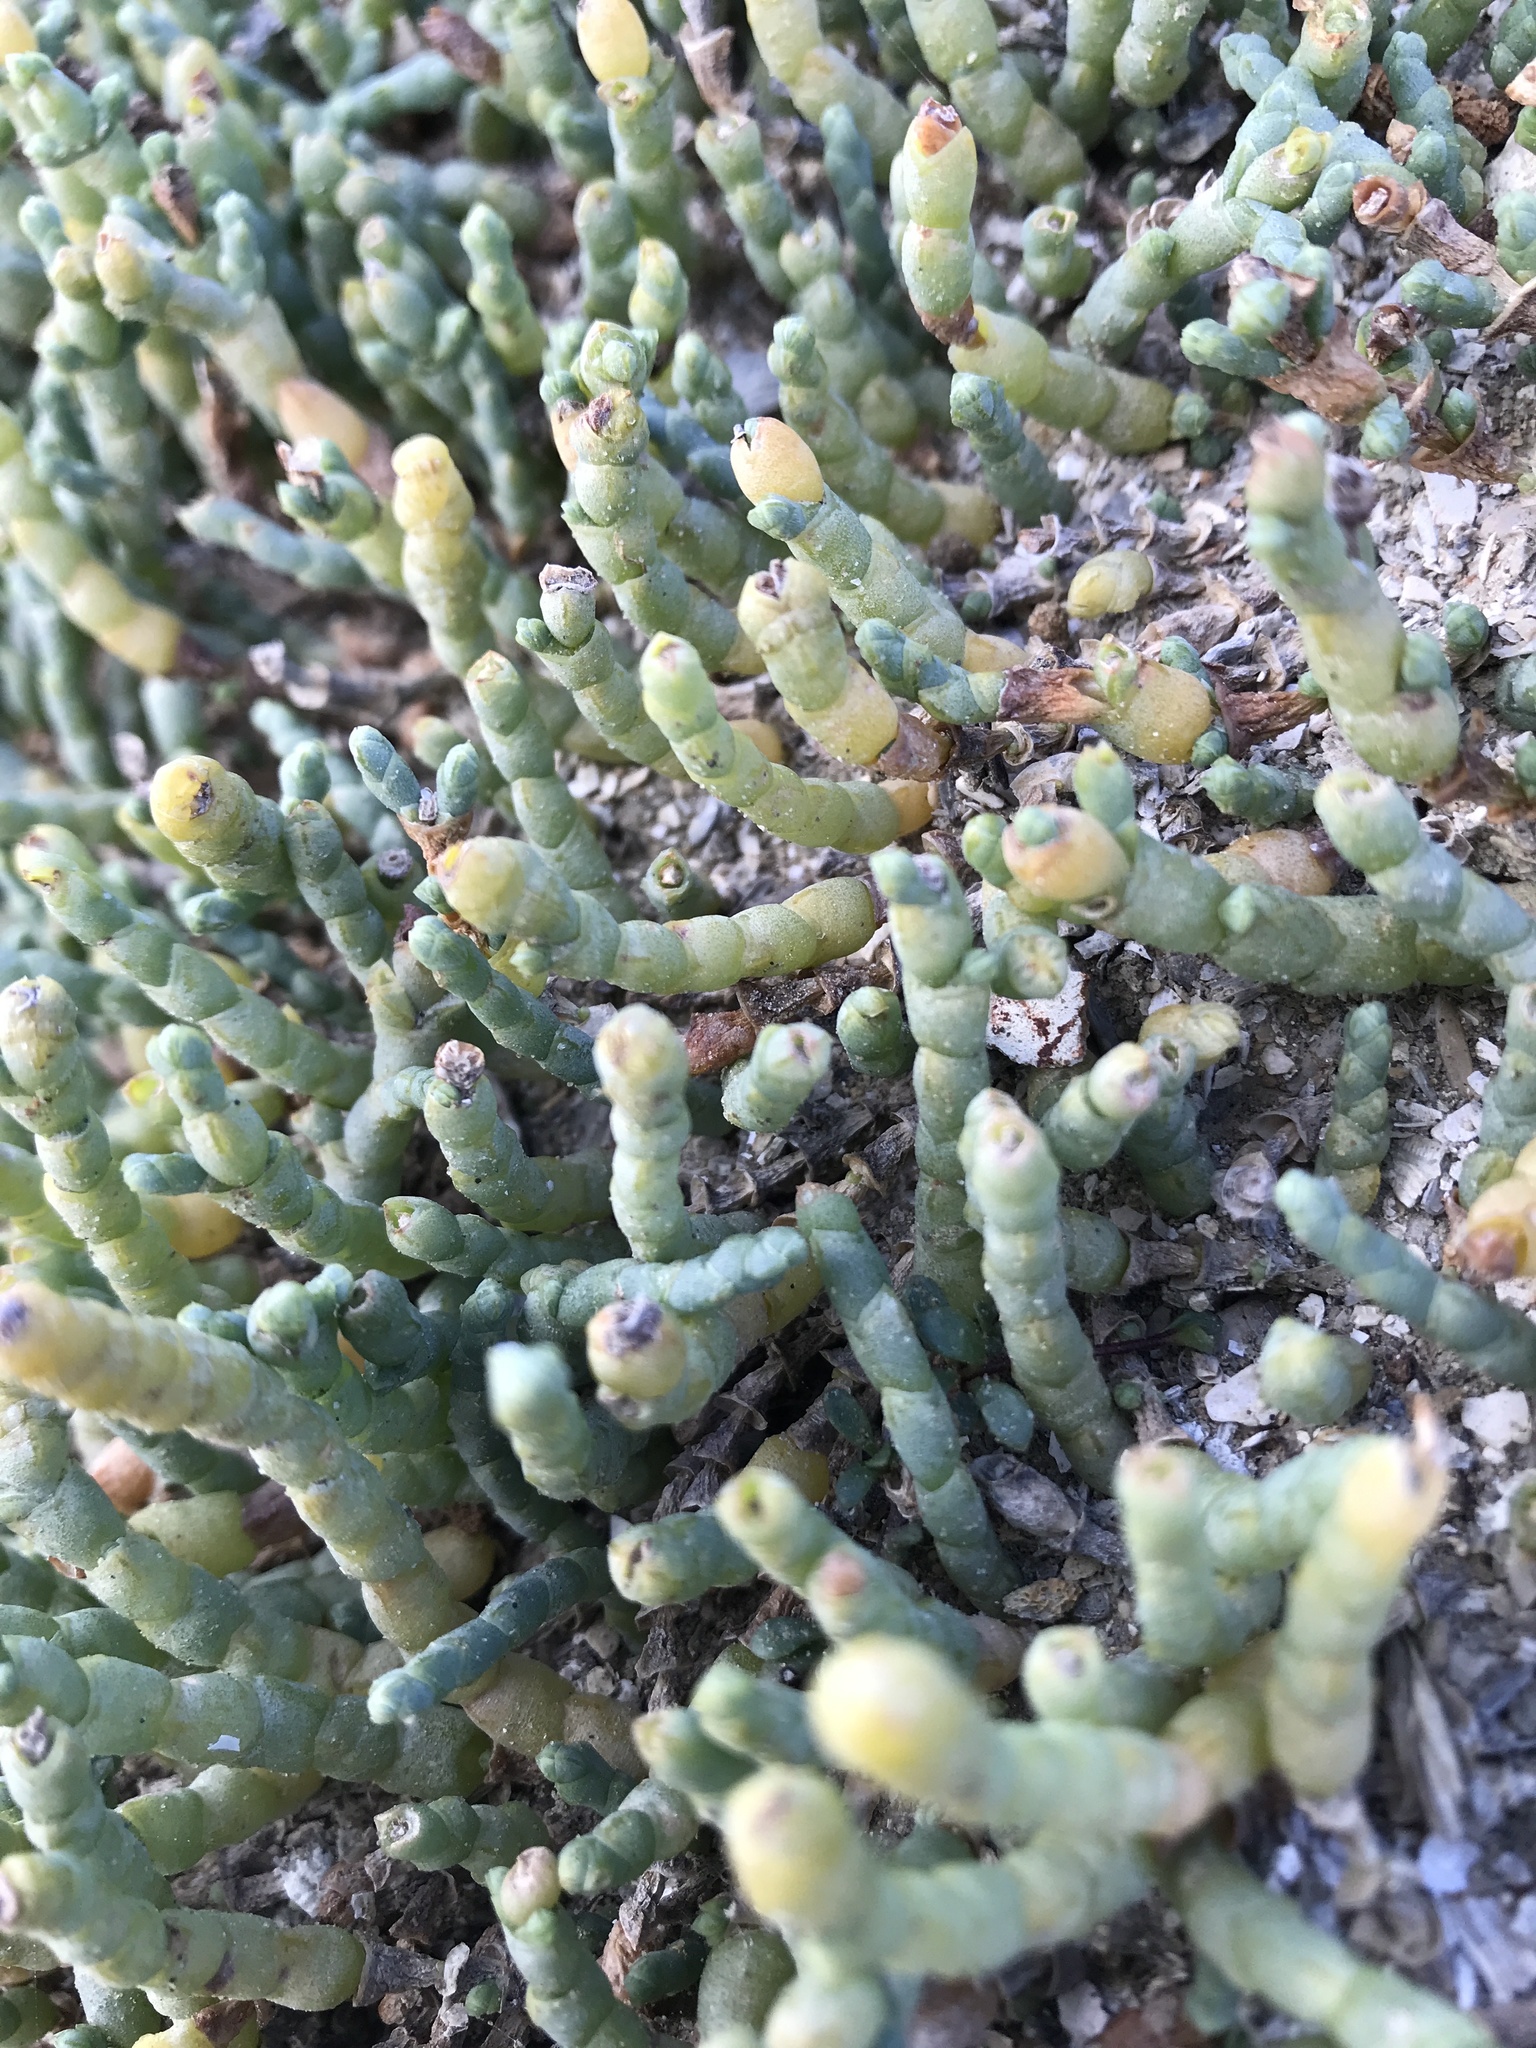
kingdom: Plantae
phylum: Tracheophyta
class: Magnoliopsida
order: Caryophyllales
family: Amaranthaceae
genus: Salicornia
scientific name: Salicornia quinqueflora
